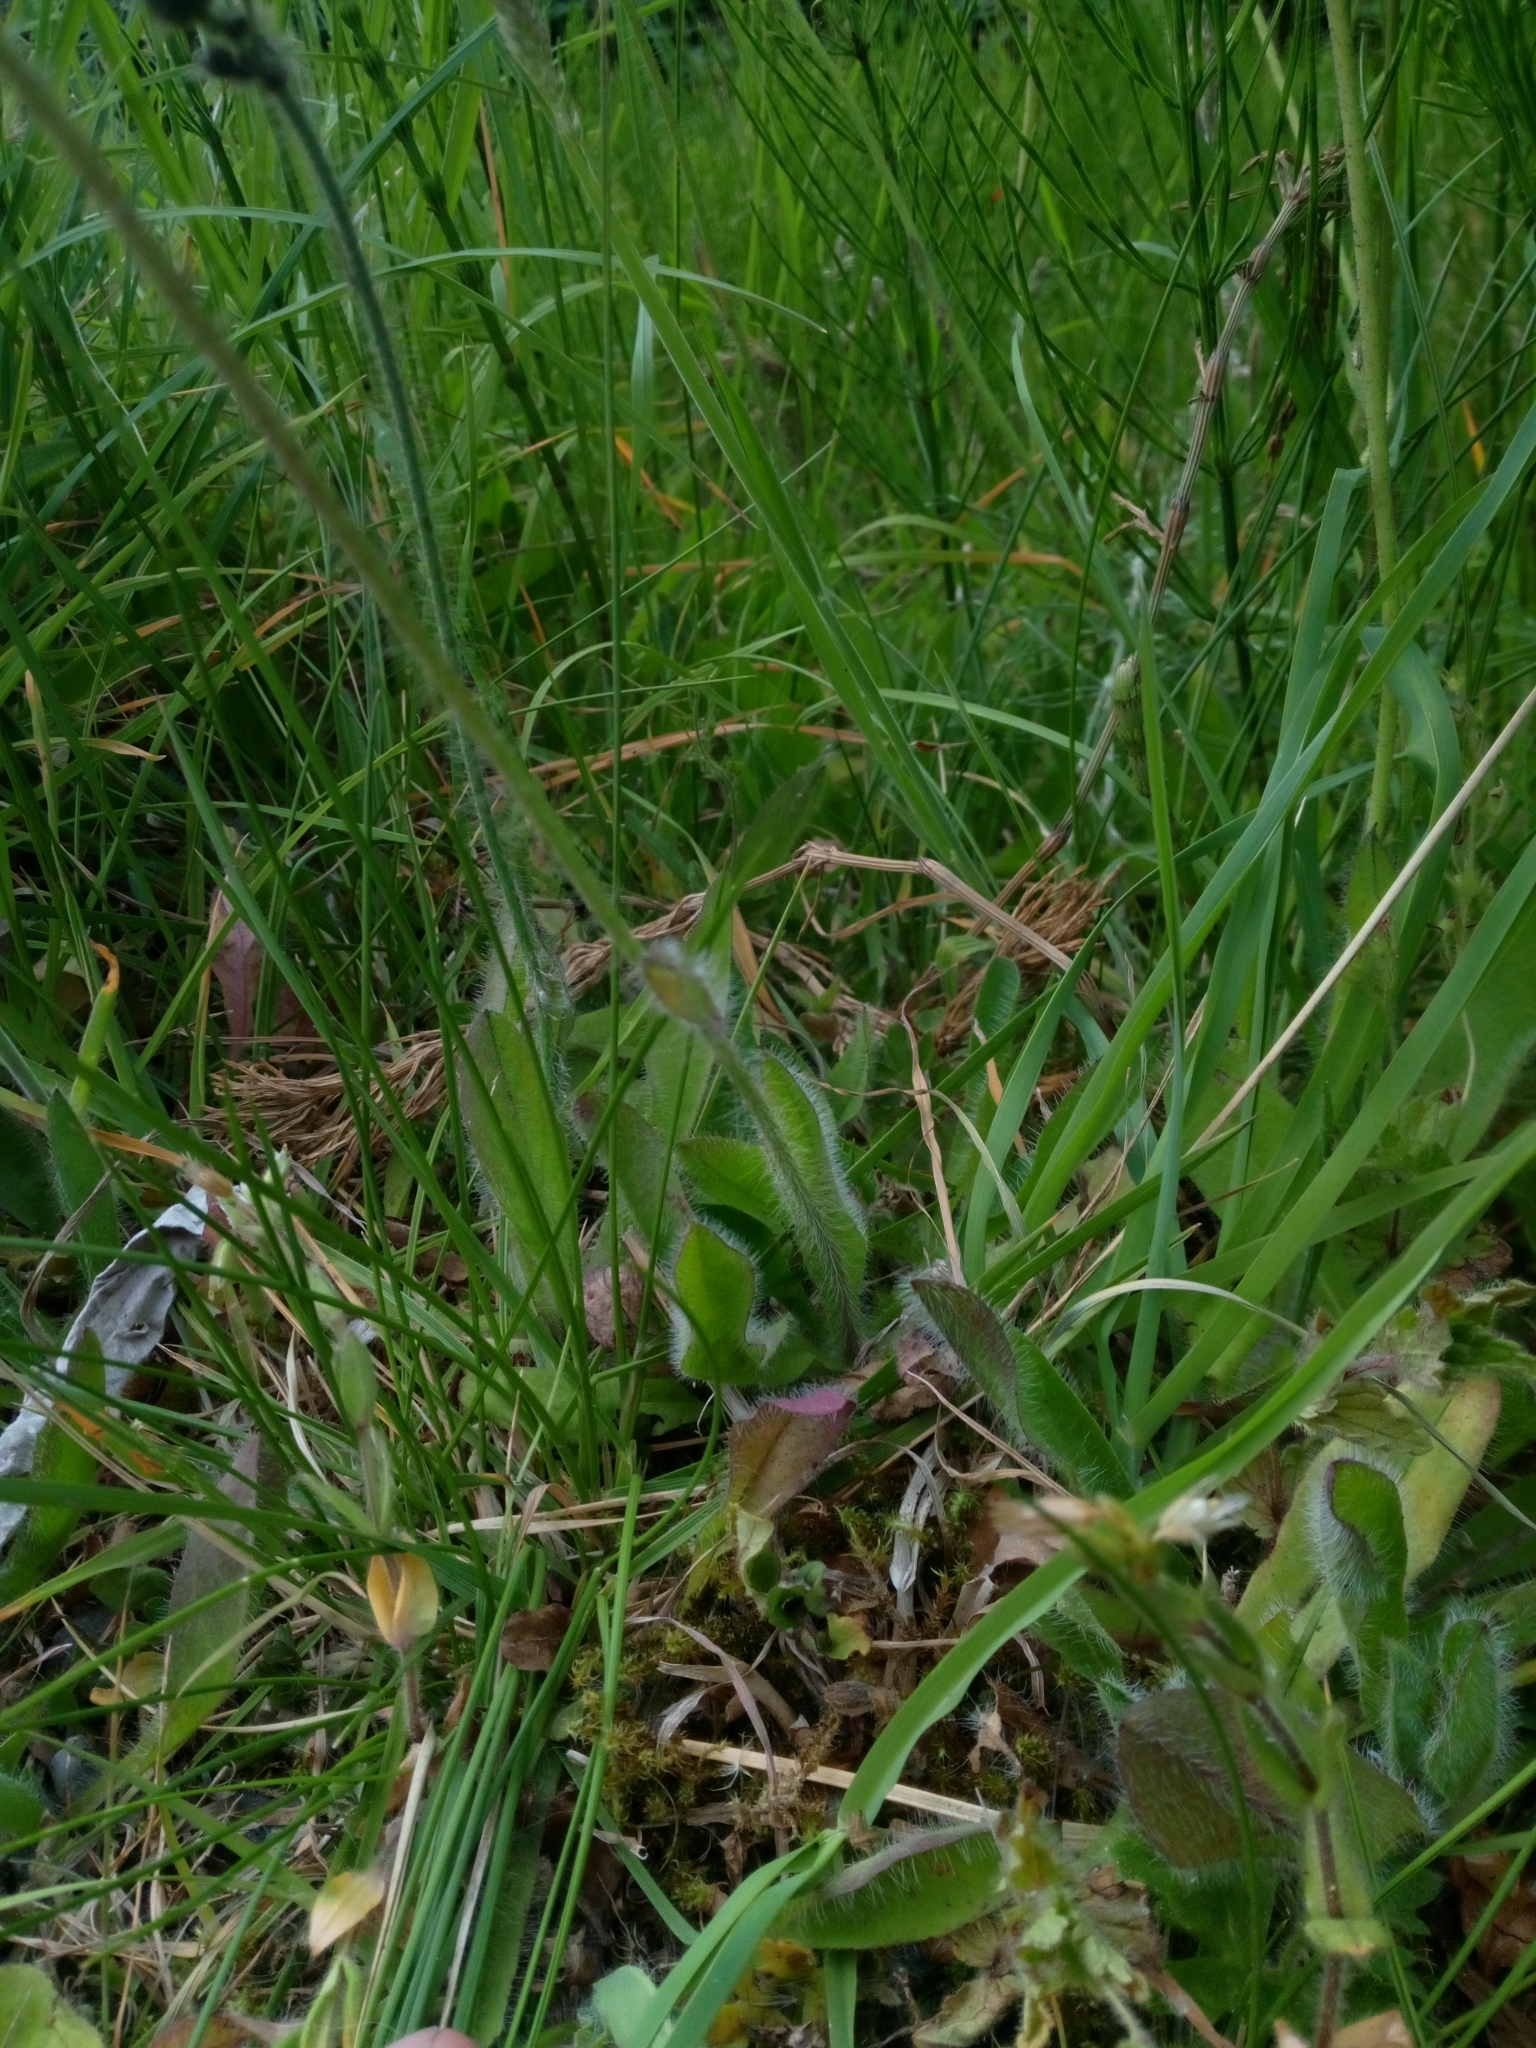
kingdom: Plantae
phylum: Tracheophyta
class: Magnoliopsida
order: Asterales
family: Asteraceae
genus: Pilosella
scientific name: Pilosella aurantiaca
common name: Fox-and-cubs
